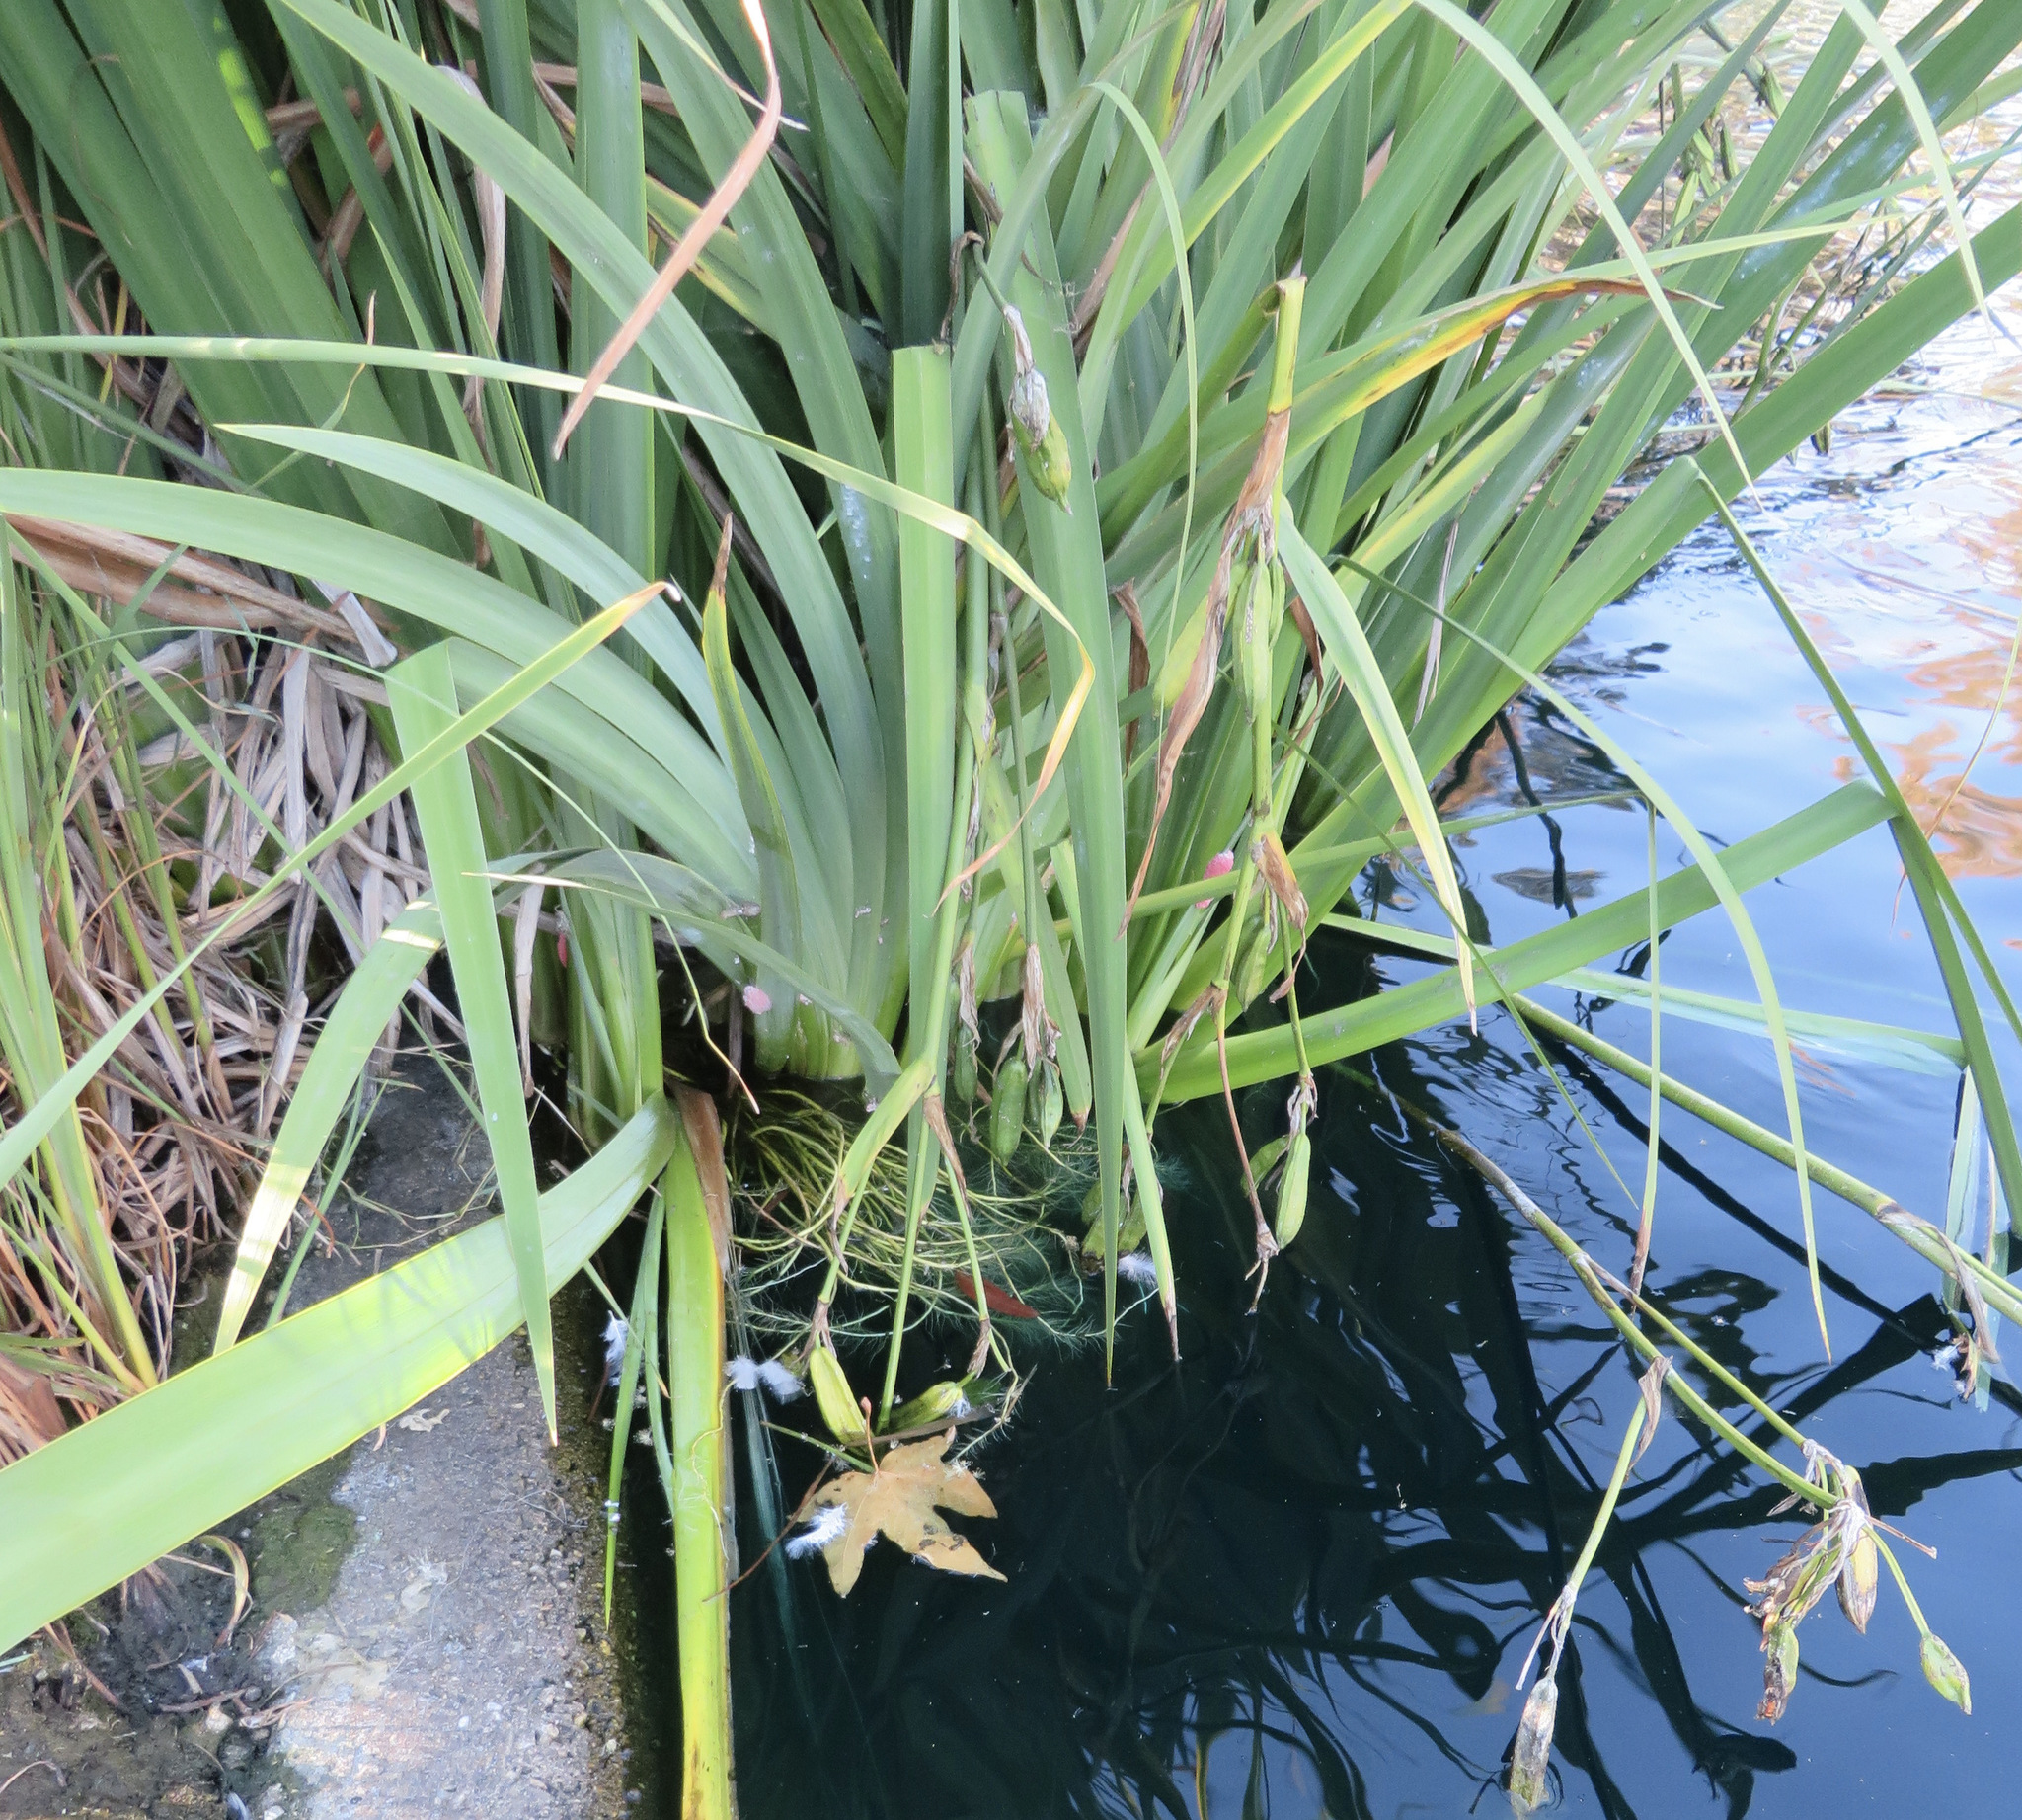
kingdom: Plantae
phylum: Tracheophyta
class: Liliopsida
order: Asparagales
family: Iridaceae
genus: Iris
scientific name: Iris pseudacorus
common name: Yellow flag
